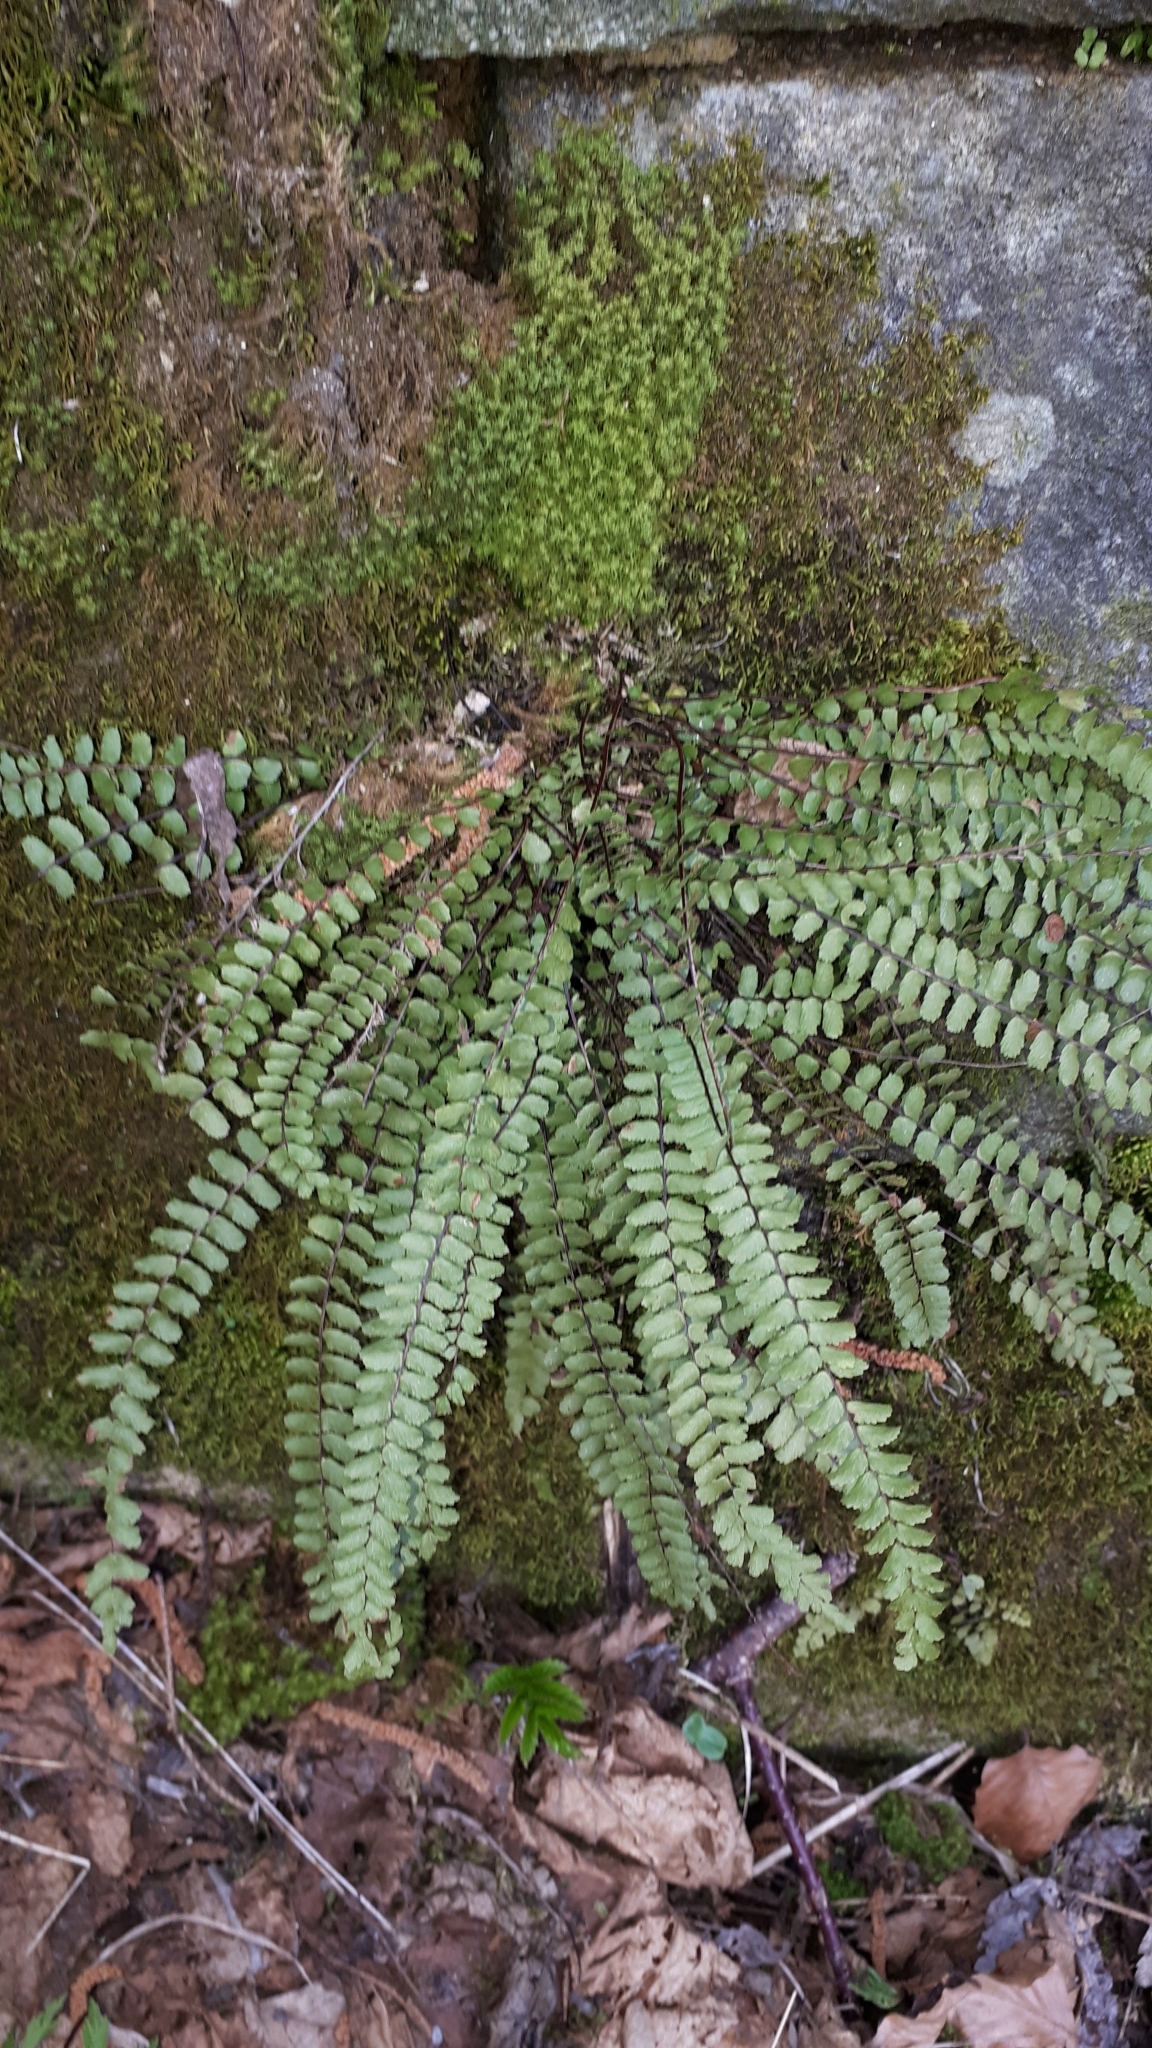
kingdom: Plantae
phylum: Tracheophyta
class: Polypodiopsida
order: Polypodiales
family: Aspleniaceae
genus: Asplenium
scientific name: Asplenium trichomanes
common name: Maidenhair spleenwort
